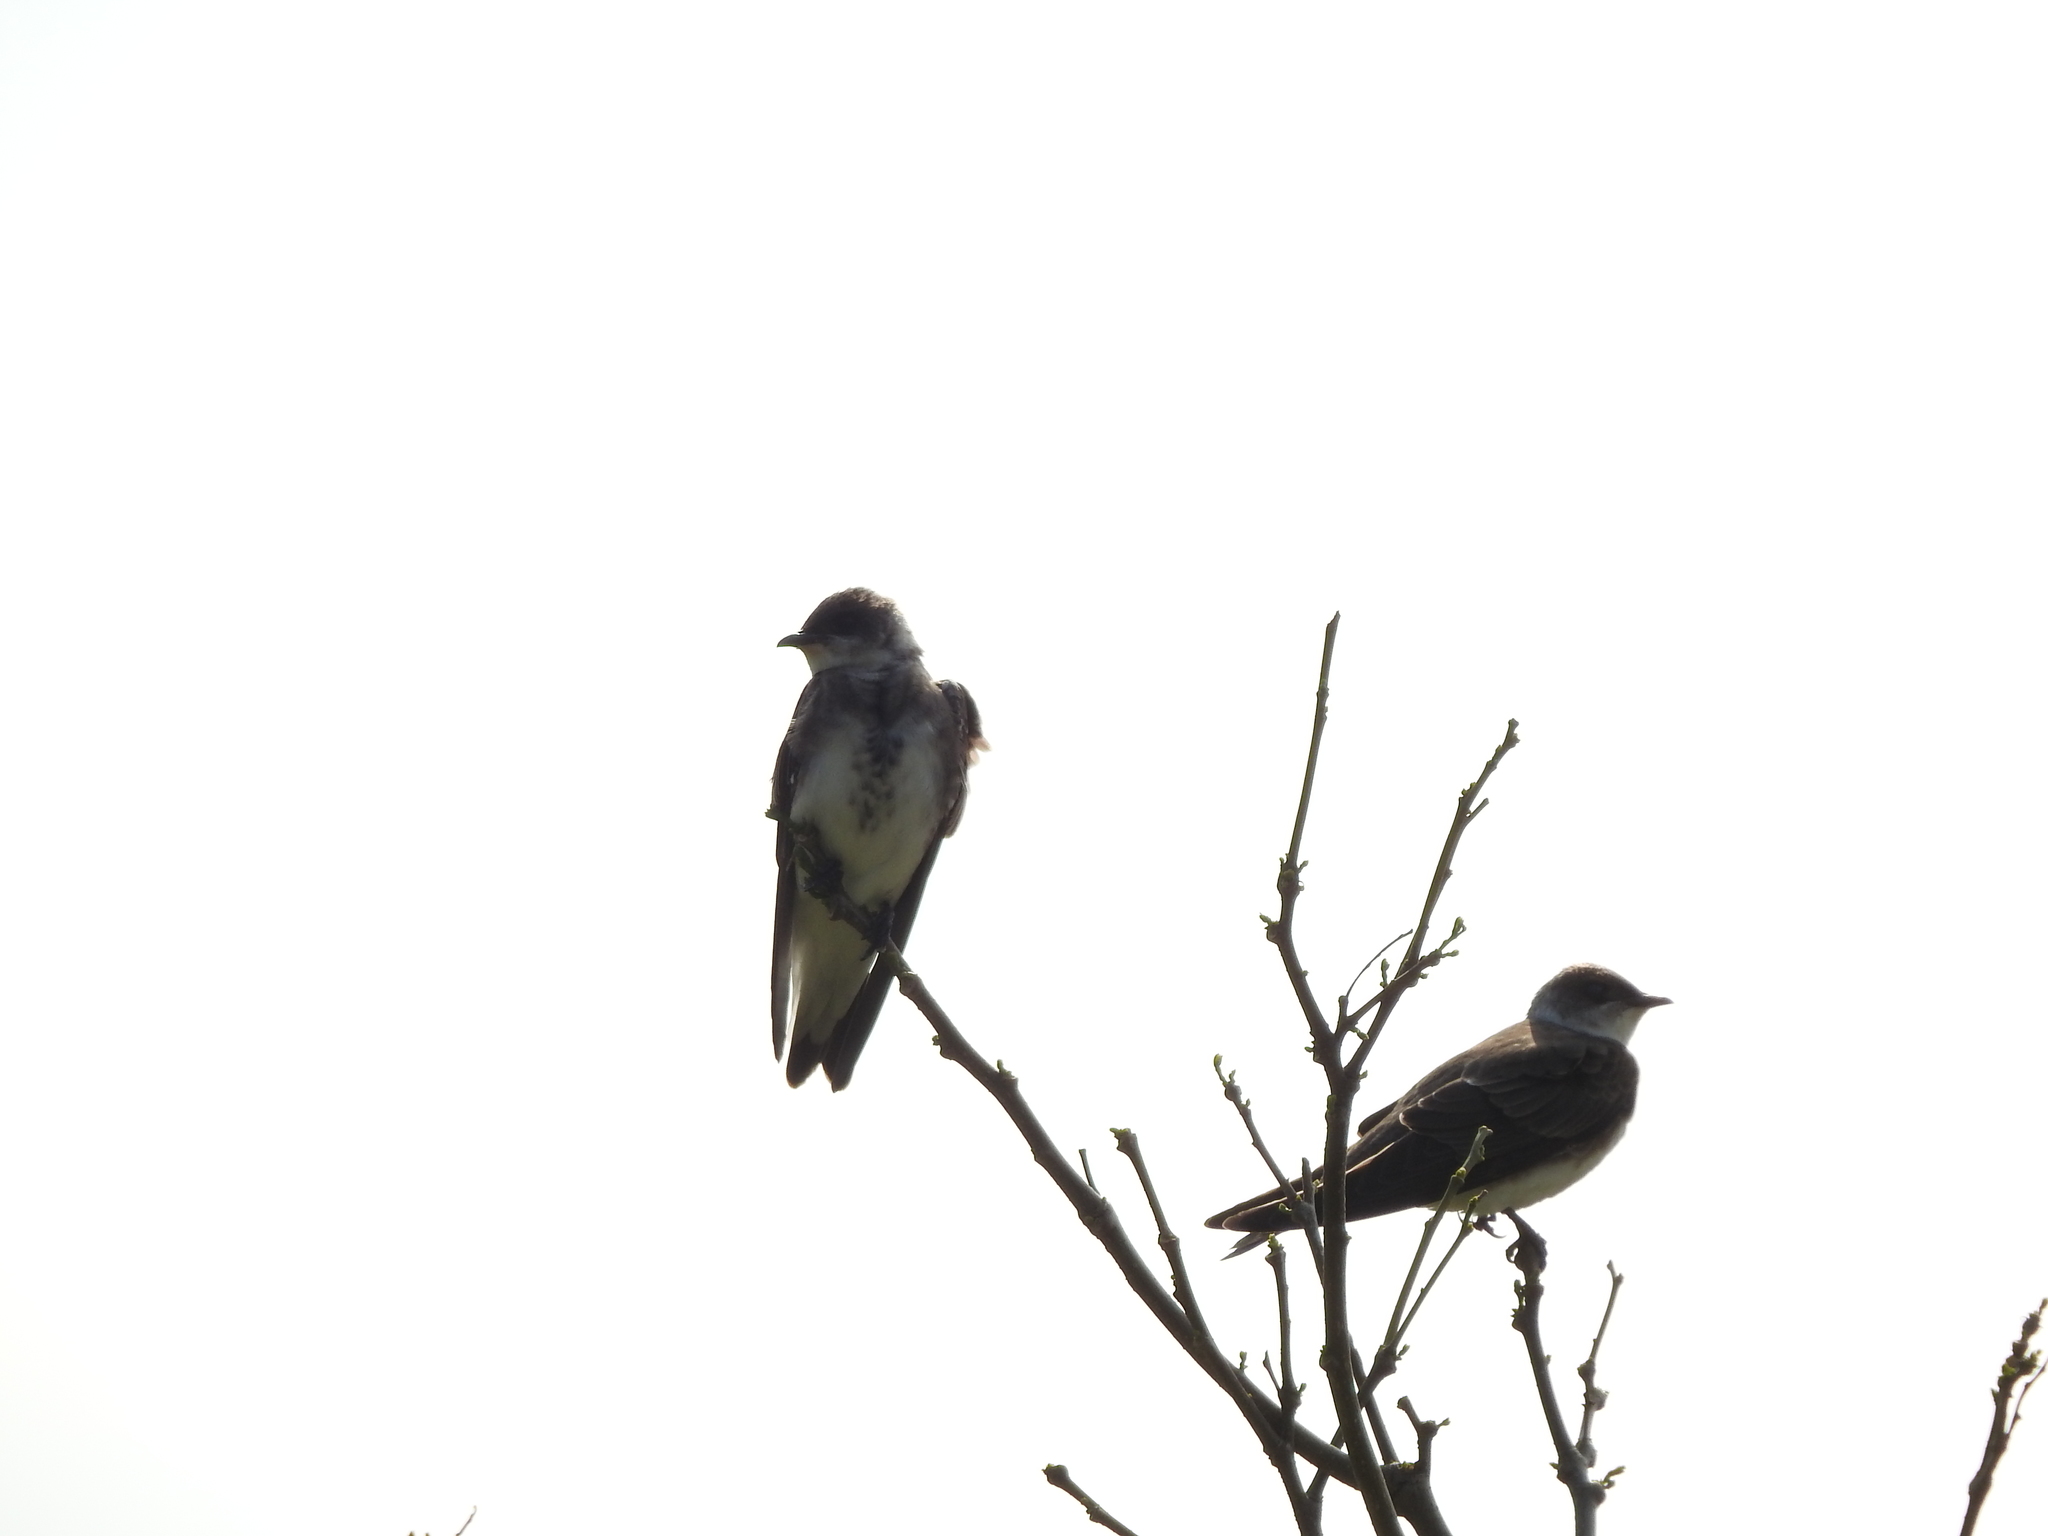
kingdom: Animalia
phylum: Chordata
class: Aves
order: Passeriformes
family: Hirundinidae
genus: Progne
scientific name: Progne tapera
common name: Brown-chested martin
